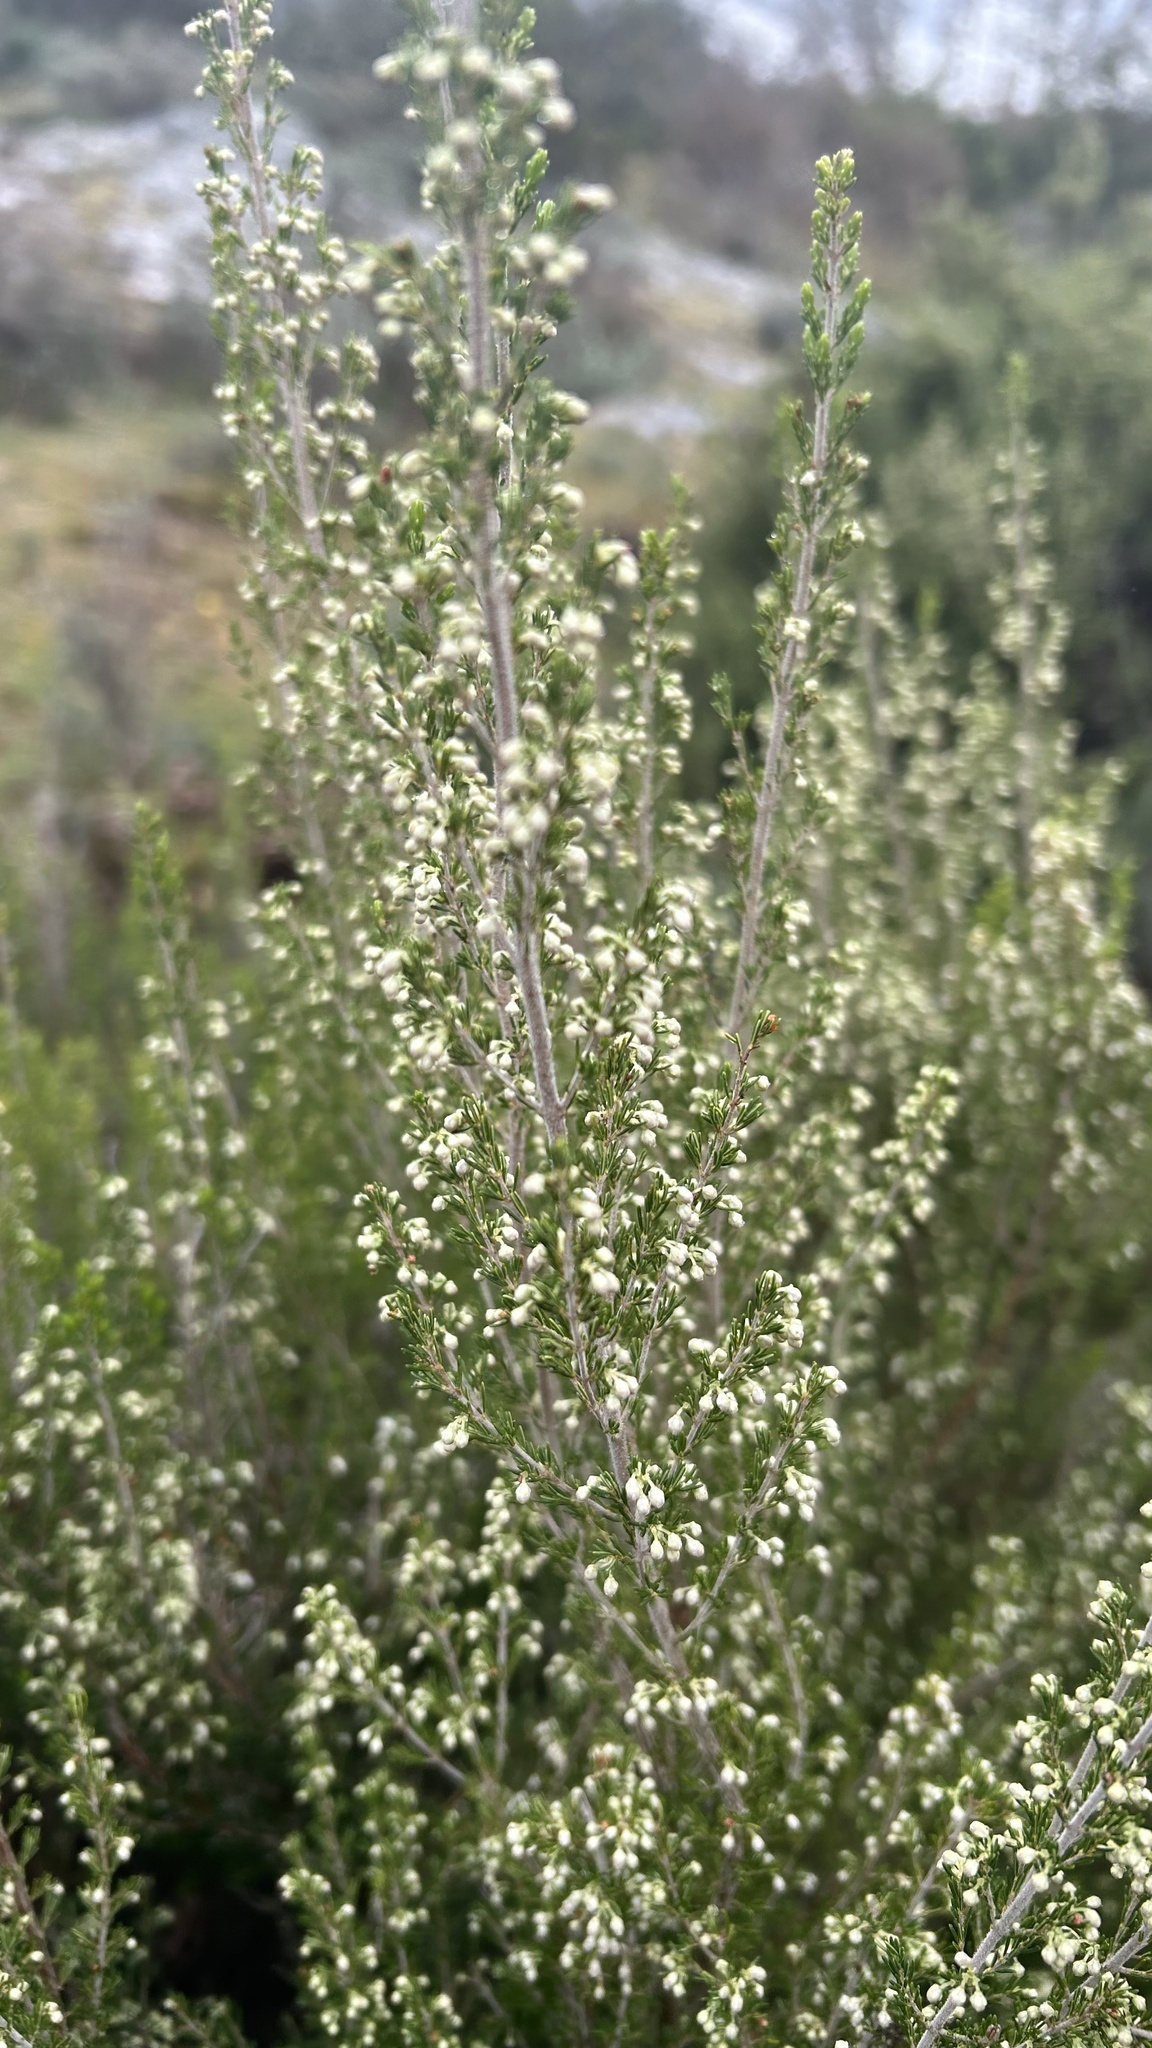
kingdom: Plantae
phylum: Tracheophyta
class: Magnoliopsida
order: Ericales
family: Ericaceae
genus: Erica
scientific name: Erica arborea
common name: Tree heath
